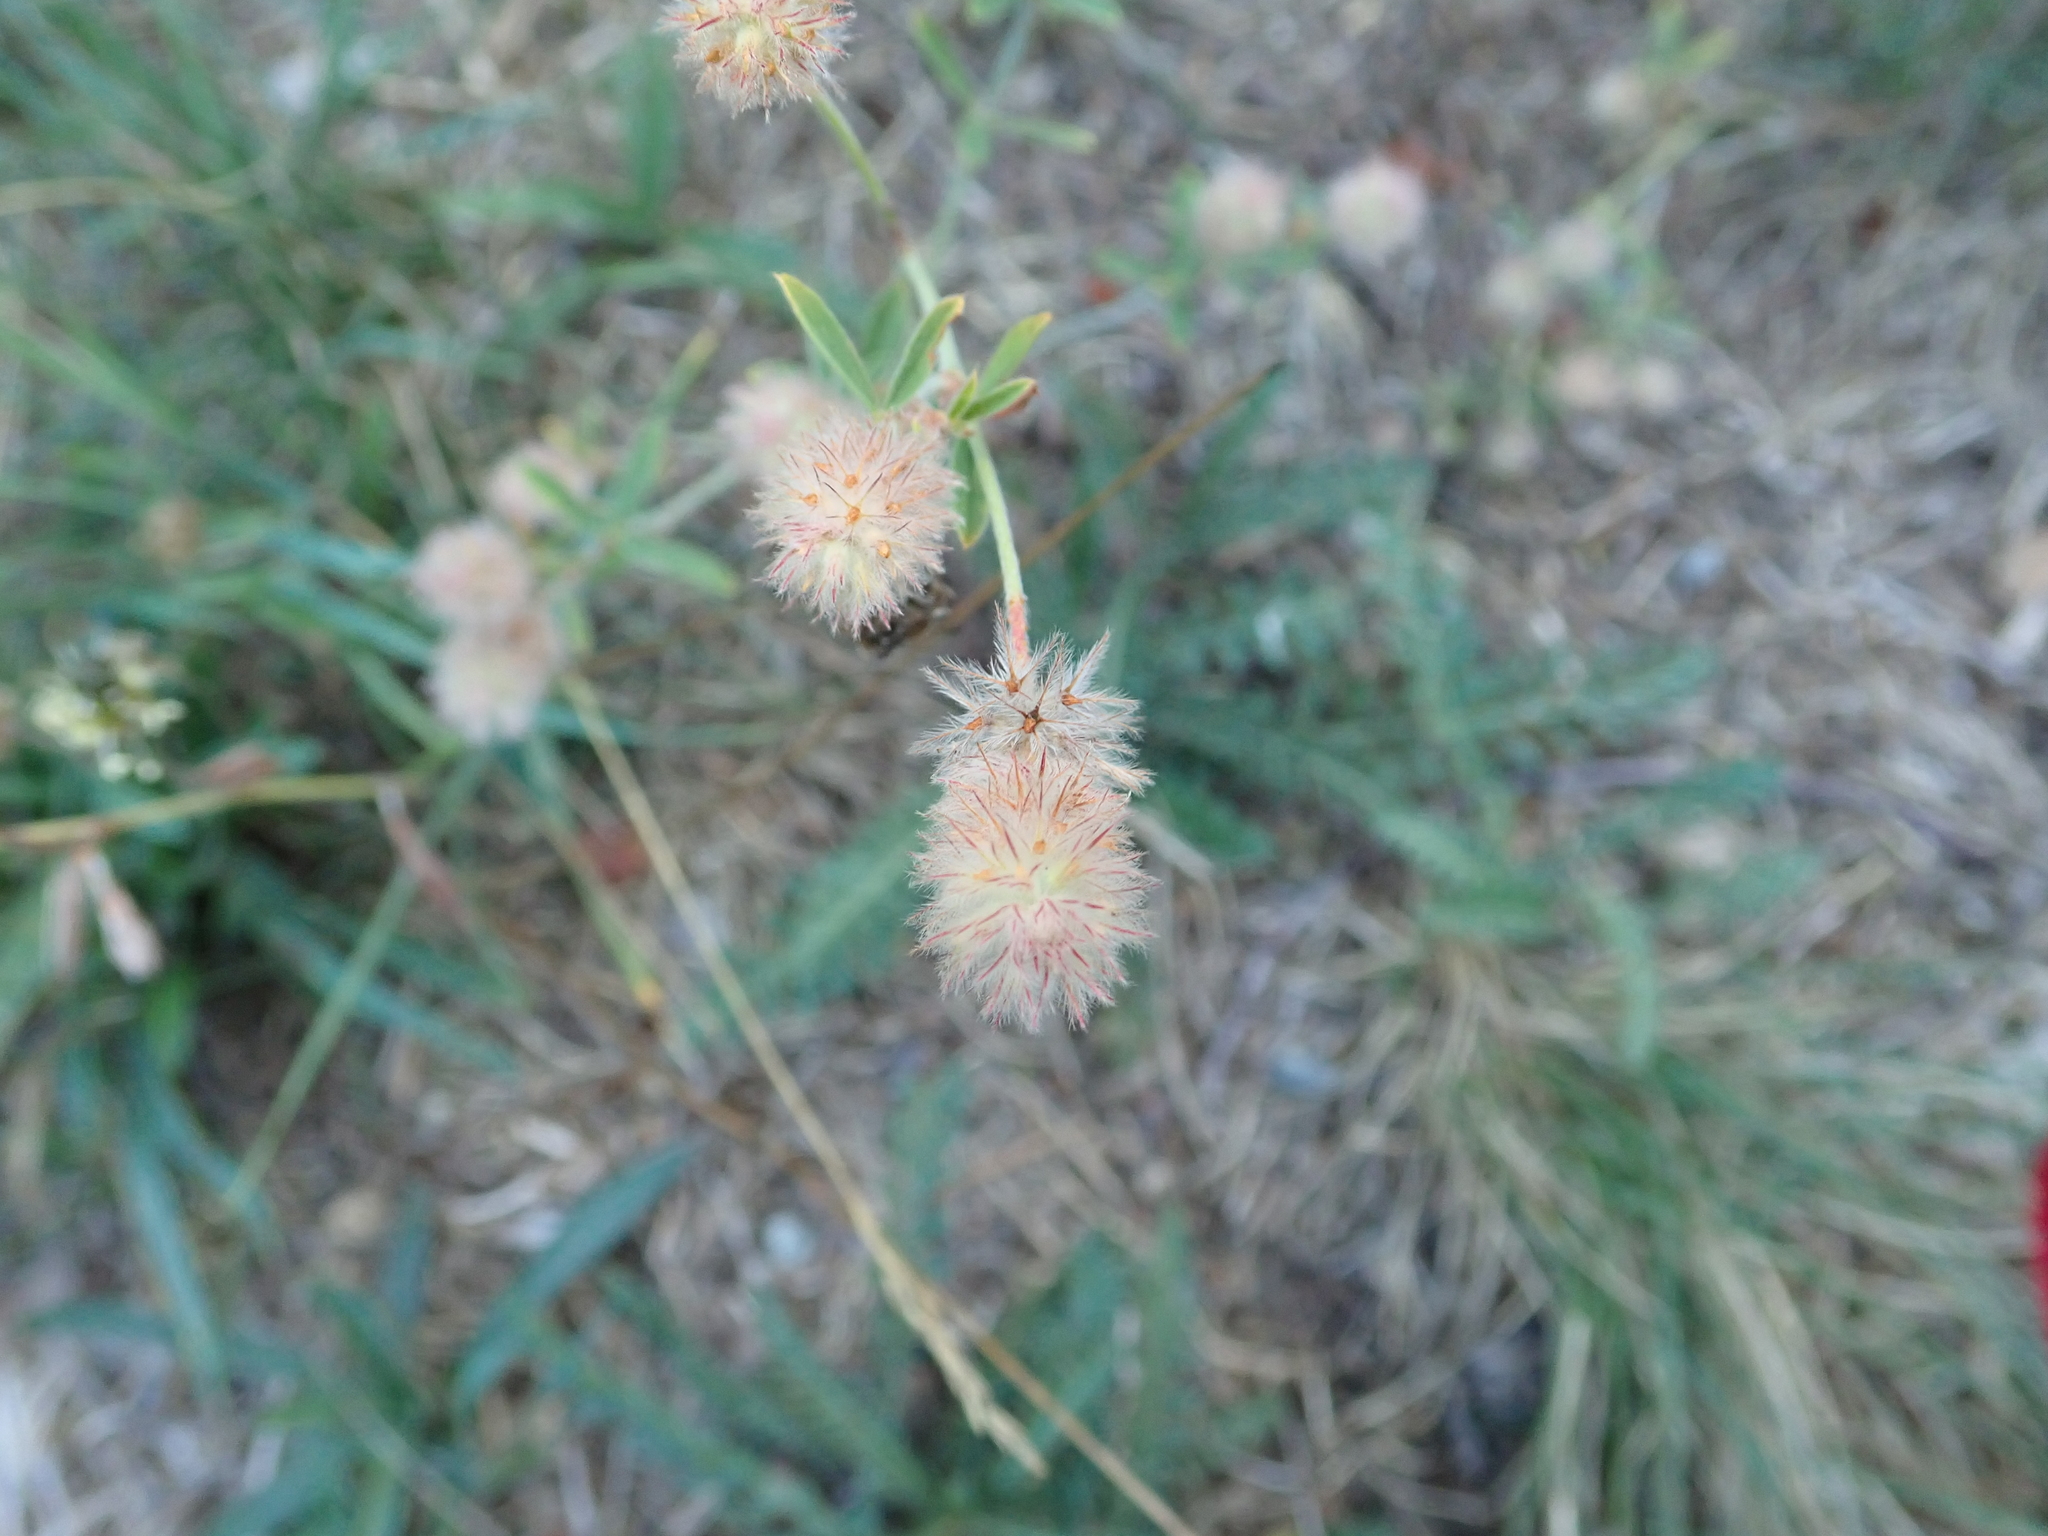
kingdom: Plantae
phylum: Tracheophyta
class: Magnoliopsida
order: Fabales
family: Fabaceae
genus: Trifolium
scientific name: Trifolium arvense
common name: Hare's-foot clover
